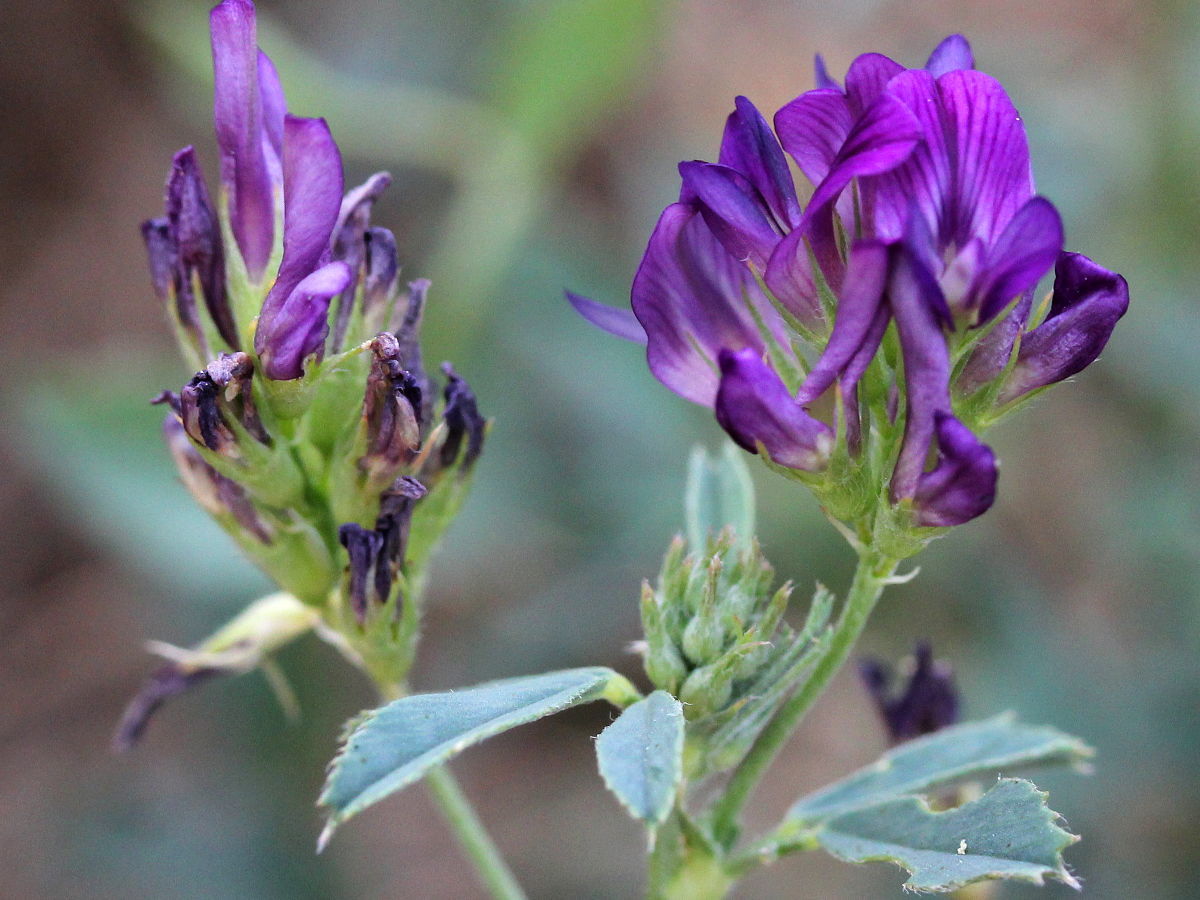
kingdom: Plantae
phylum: Tracheophyta
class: Magnoliopsida
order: Fabales
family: Fabaceae
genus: Medicago
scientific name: Medicago sativa
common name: Alfalfa
